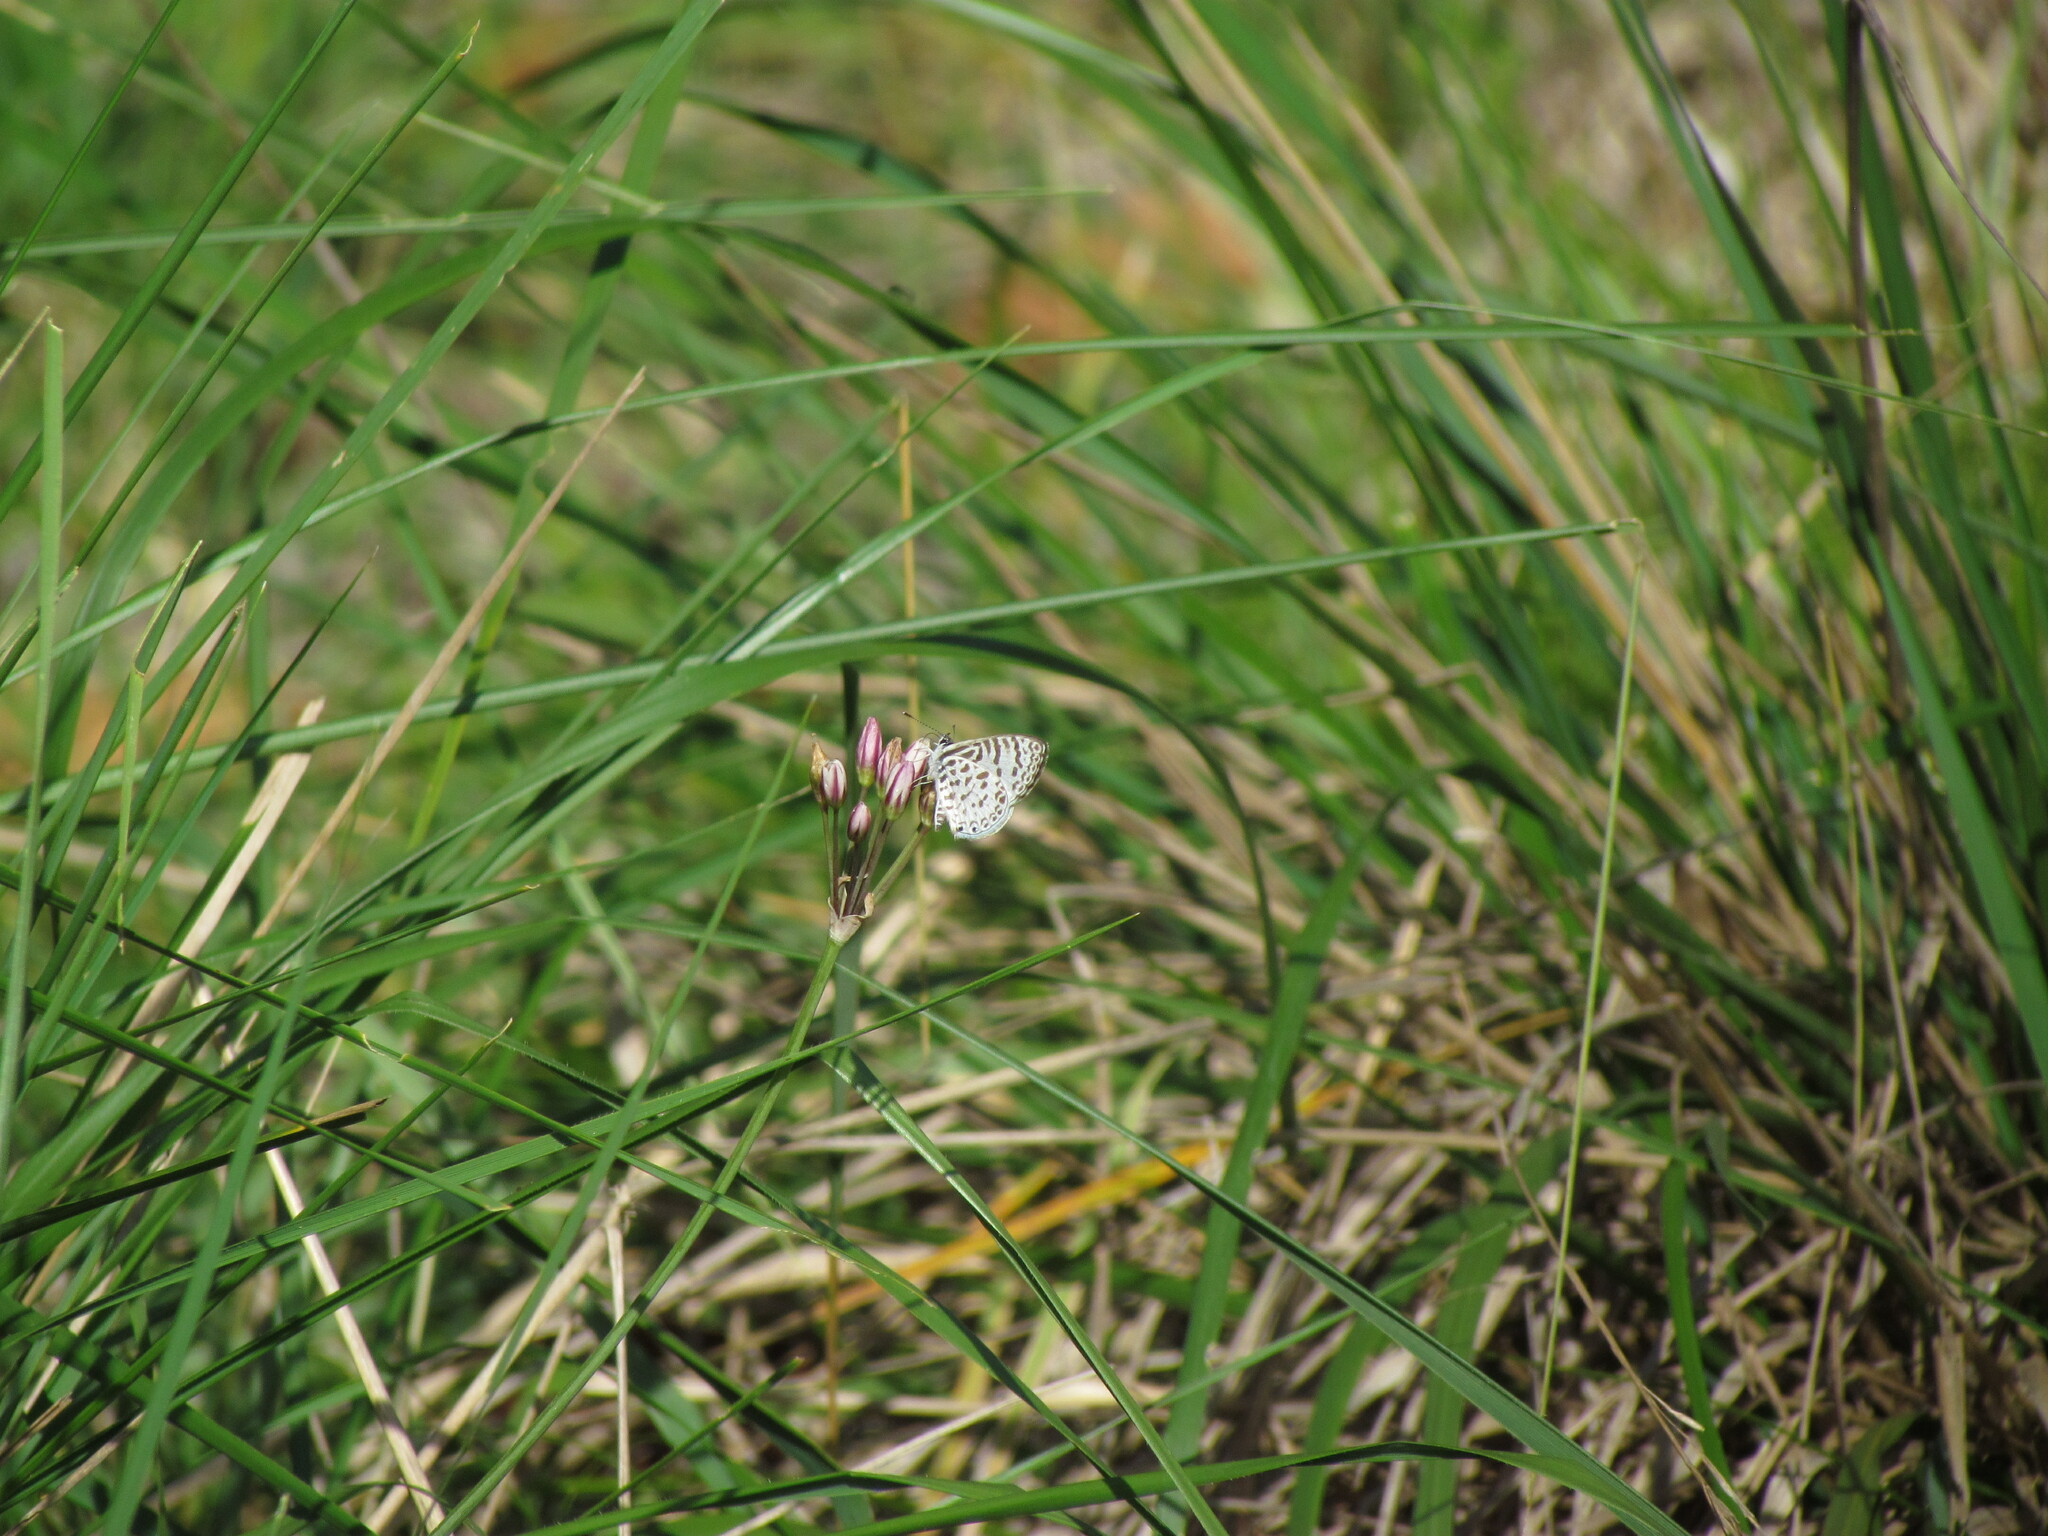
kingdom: Animalia
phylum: Arthropoda
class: Insecta
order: Lepidoptera
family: Lycaenidae
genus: Leptotes
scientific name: Leptotes cassius
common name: Cassius blue
